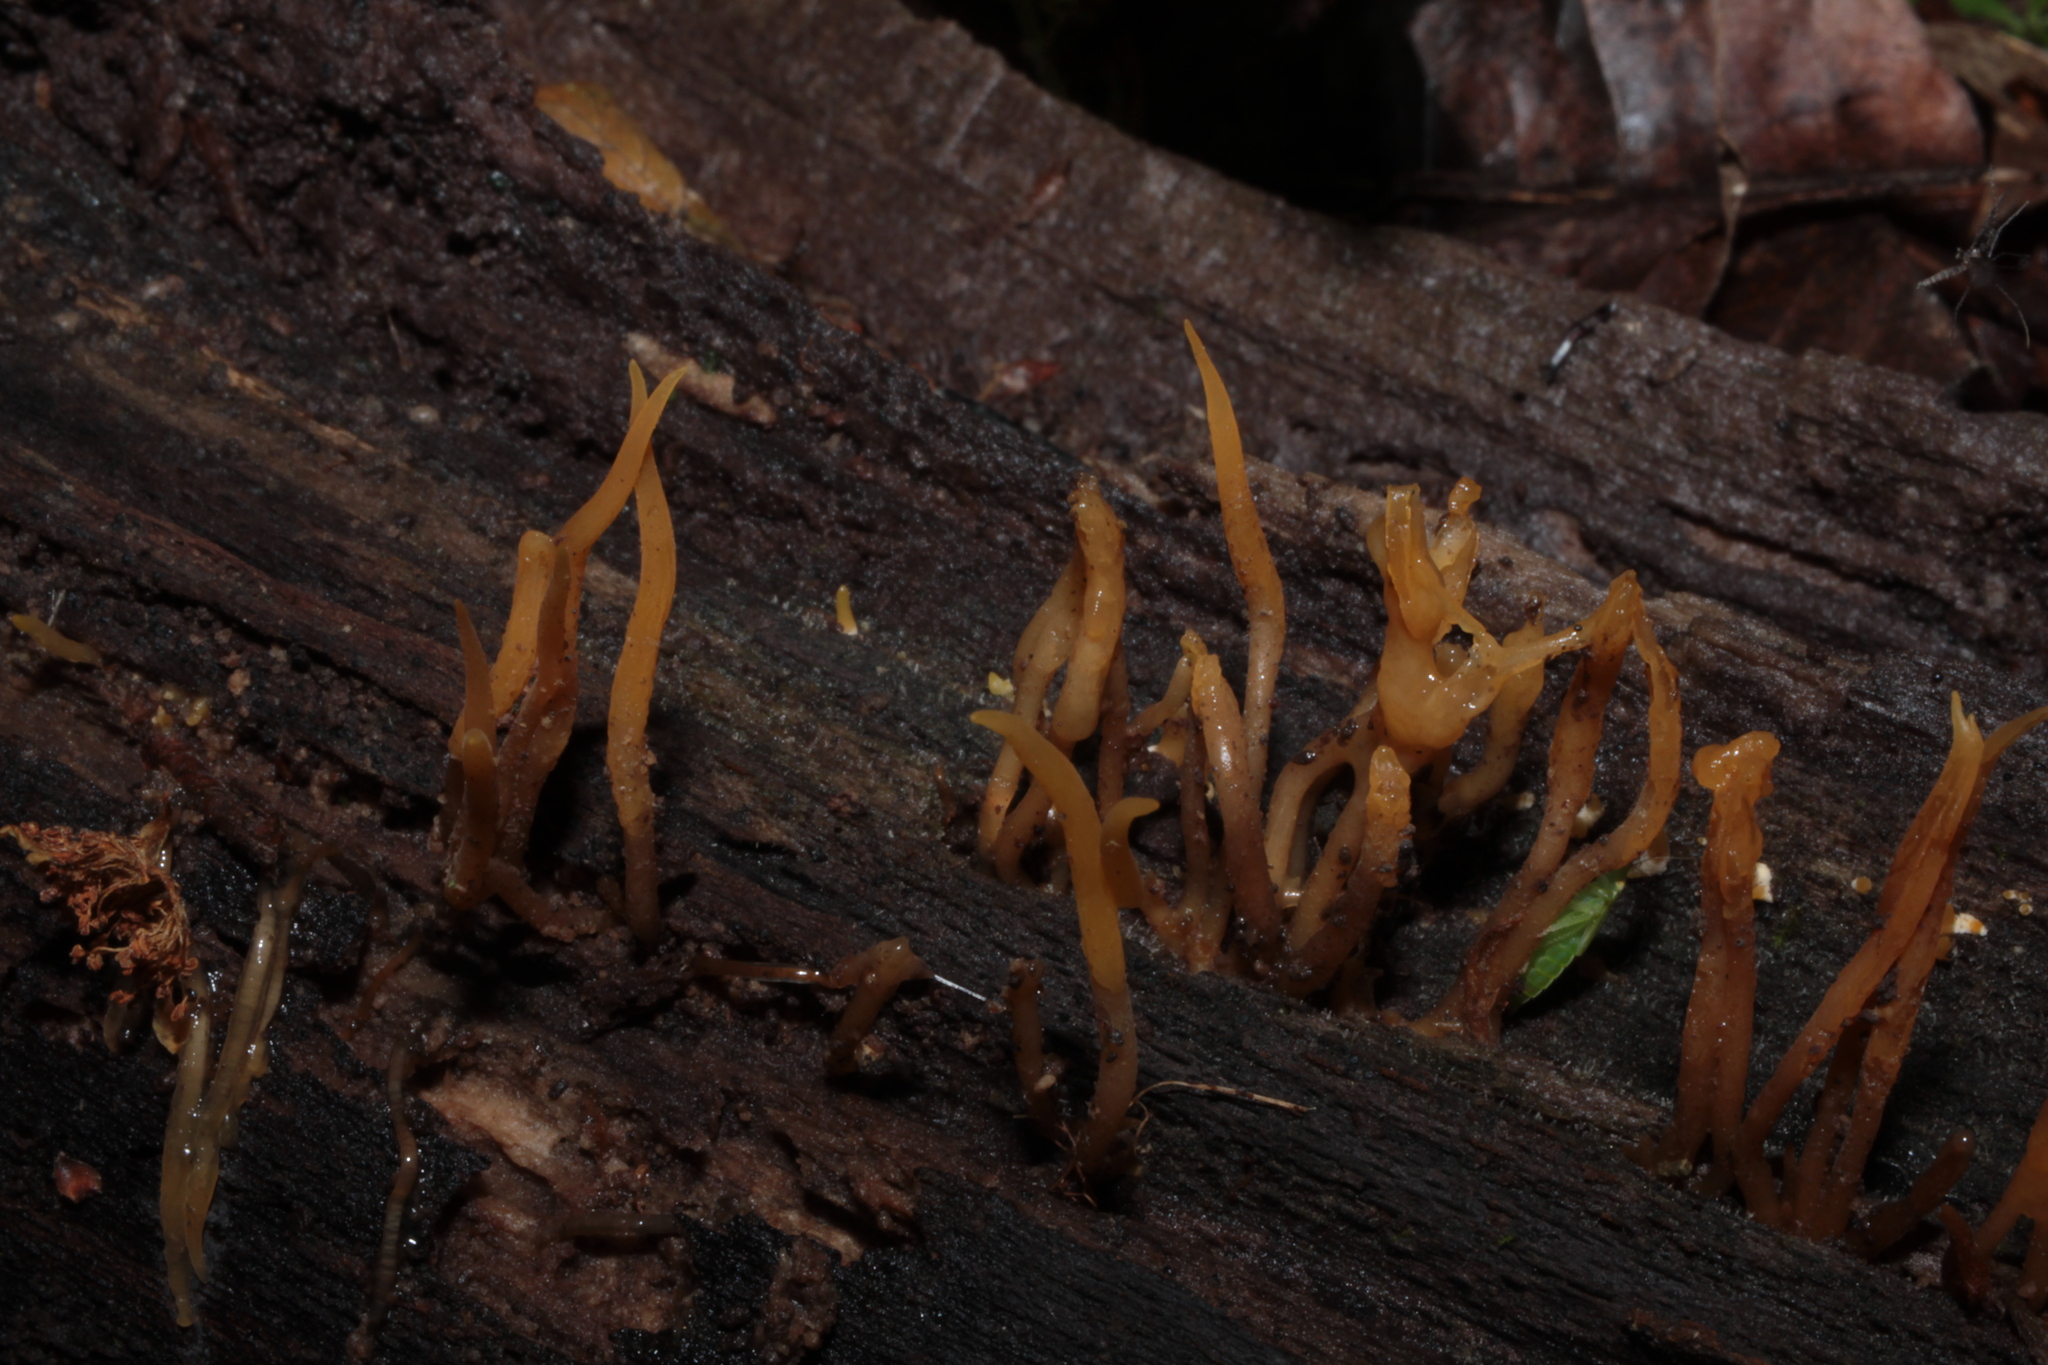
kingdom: Fungi
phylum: Basidiomycota
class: Dacrymycetes
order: Dacrymycetales
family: Dacrymycetaceae
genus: Calocera
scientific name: Calocera cornea
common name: Small stagshorn
